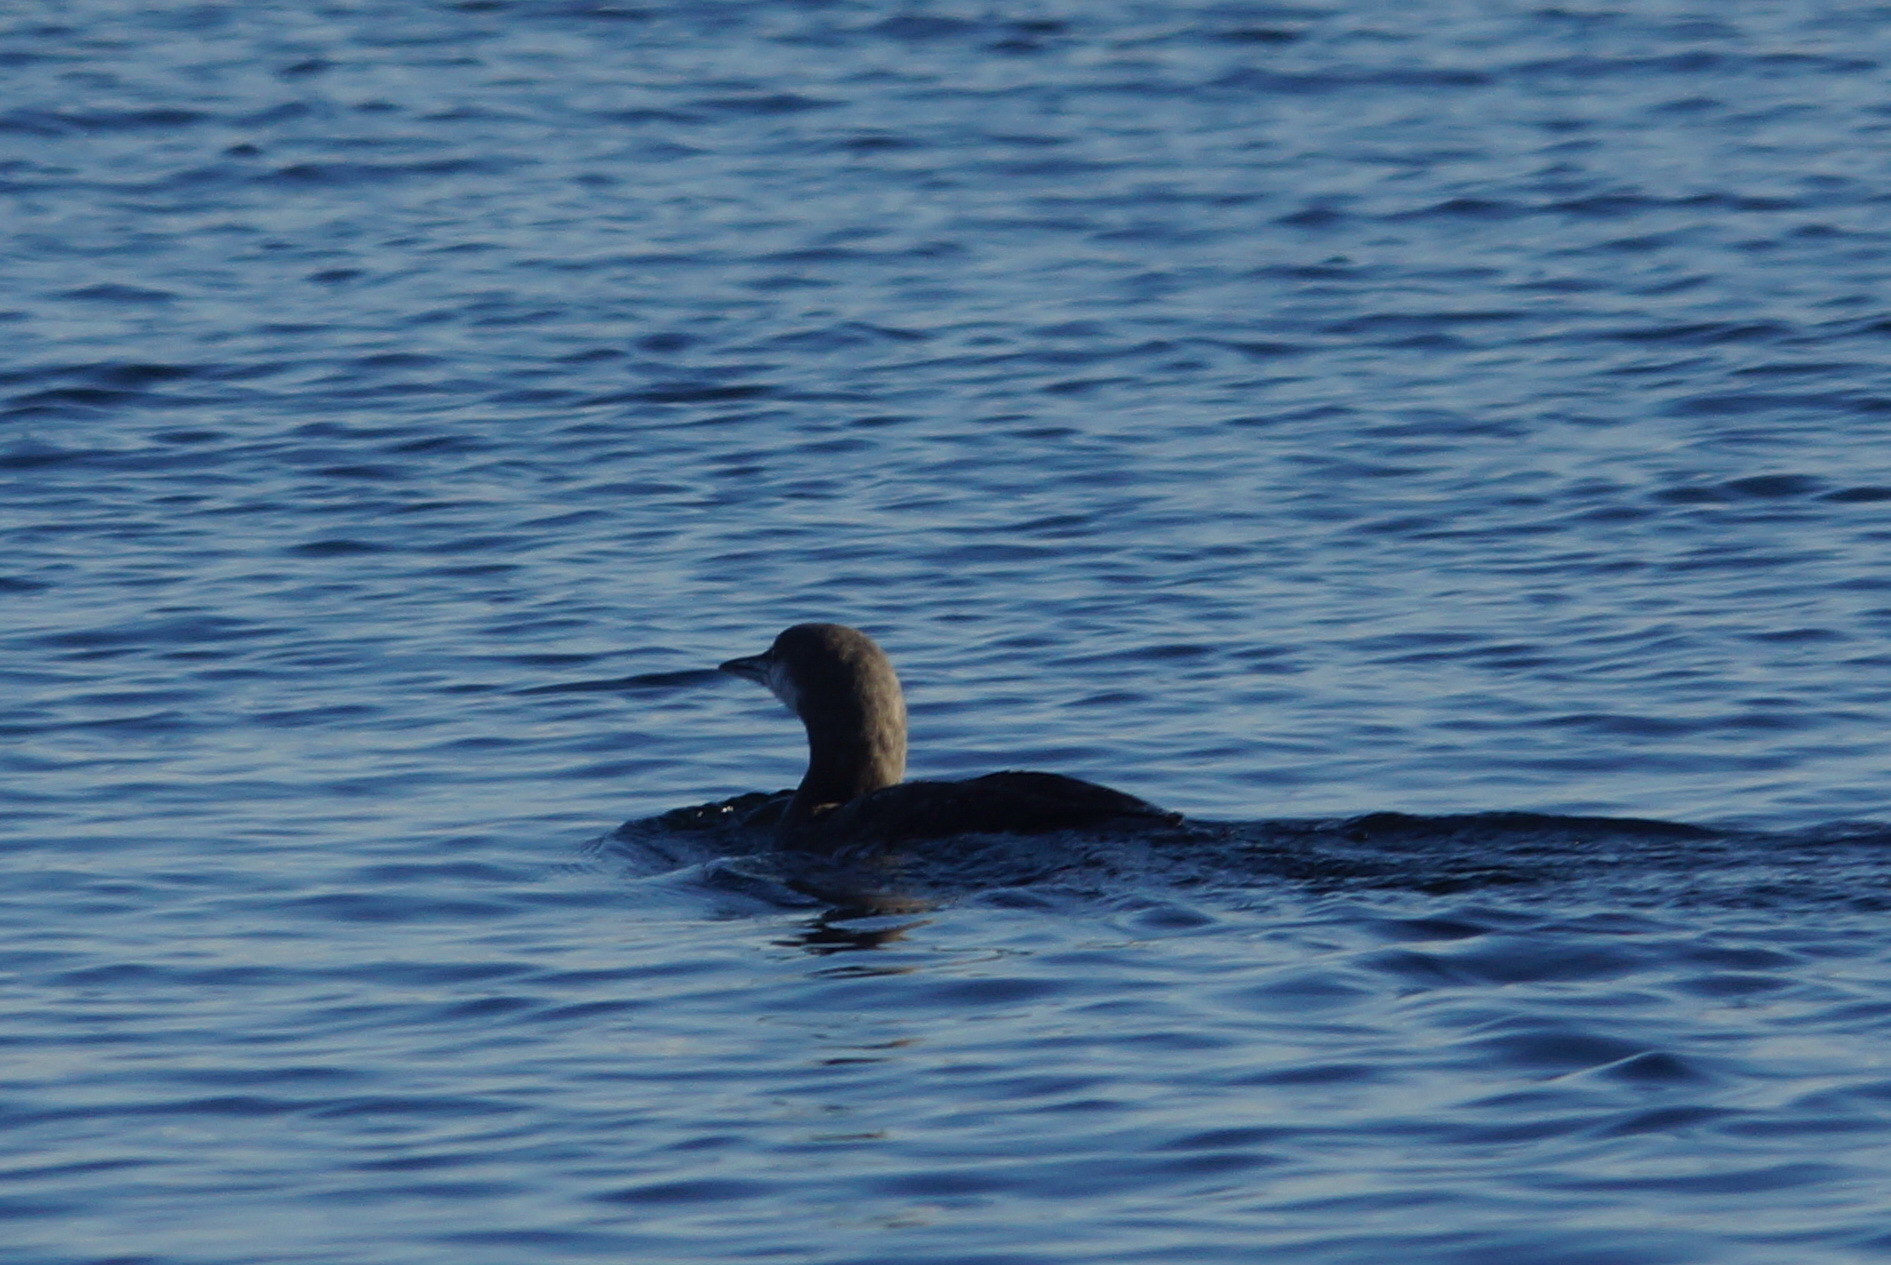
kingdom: Animalia
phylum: Chordata
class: Aves
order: Gaviiformes
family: Gaviidae
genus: Gavia
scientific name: Gavia arctica
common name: Black-throated loon
